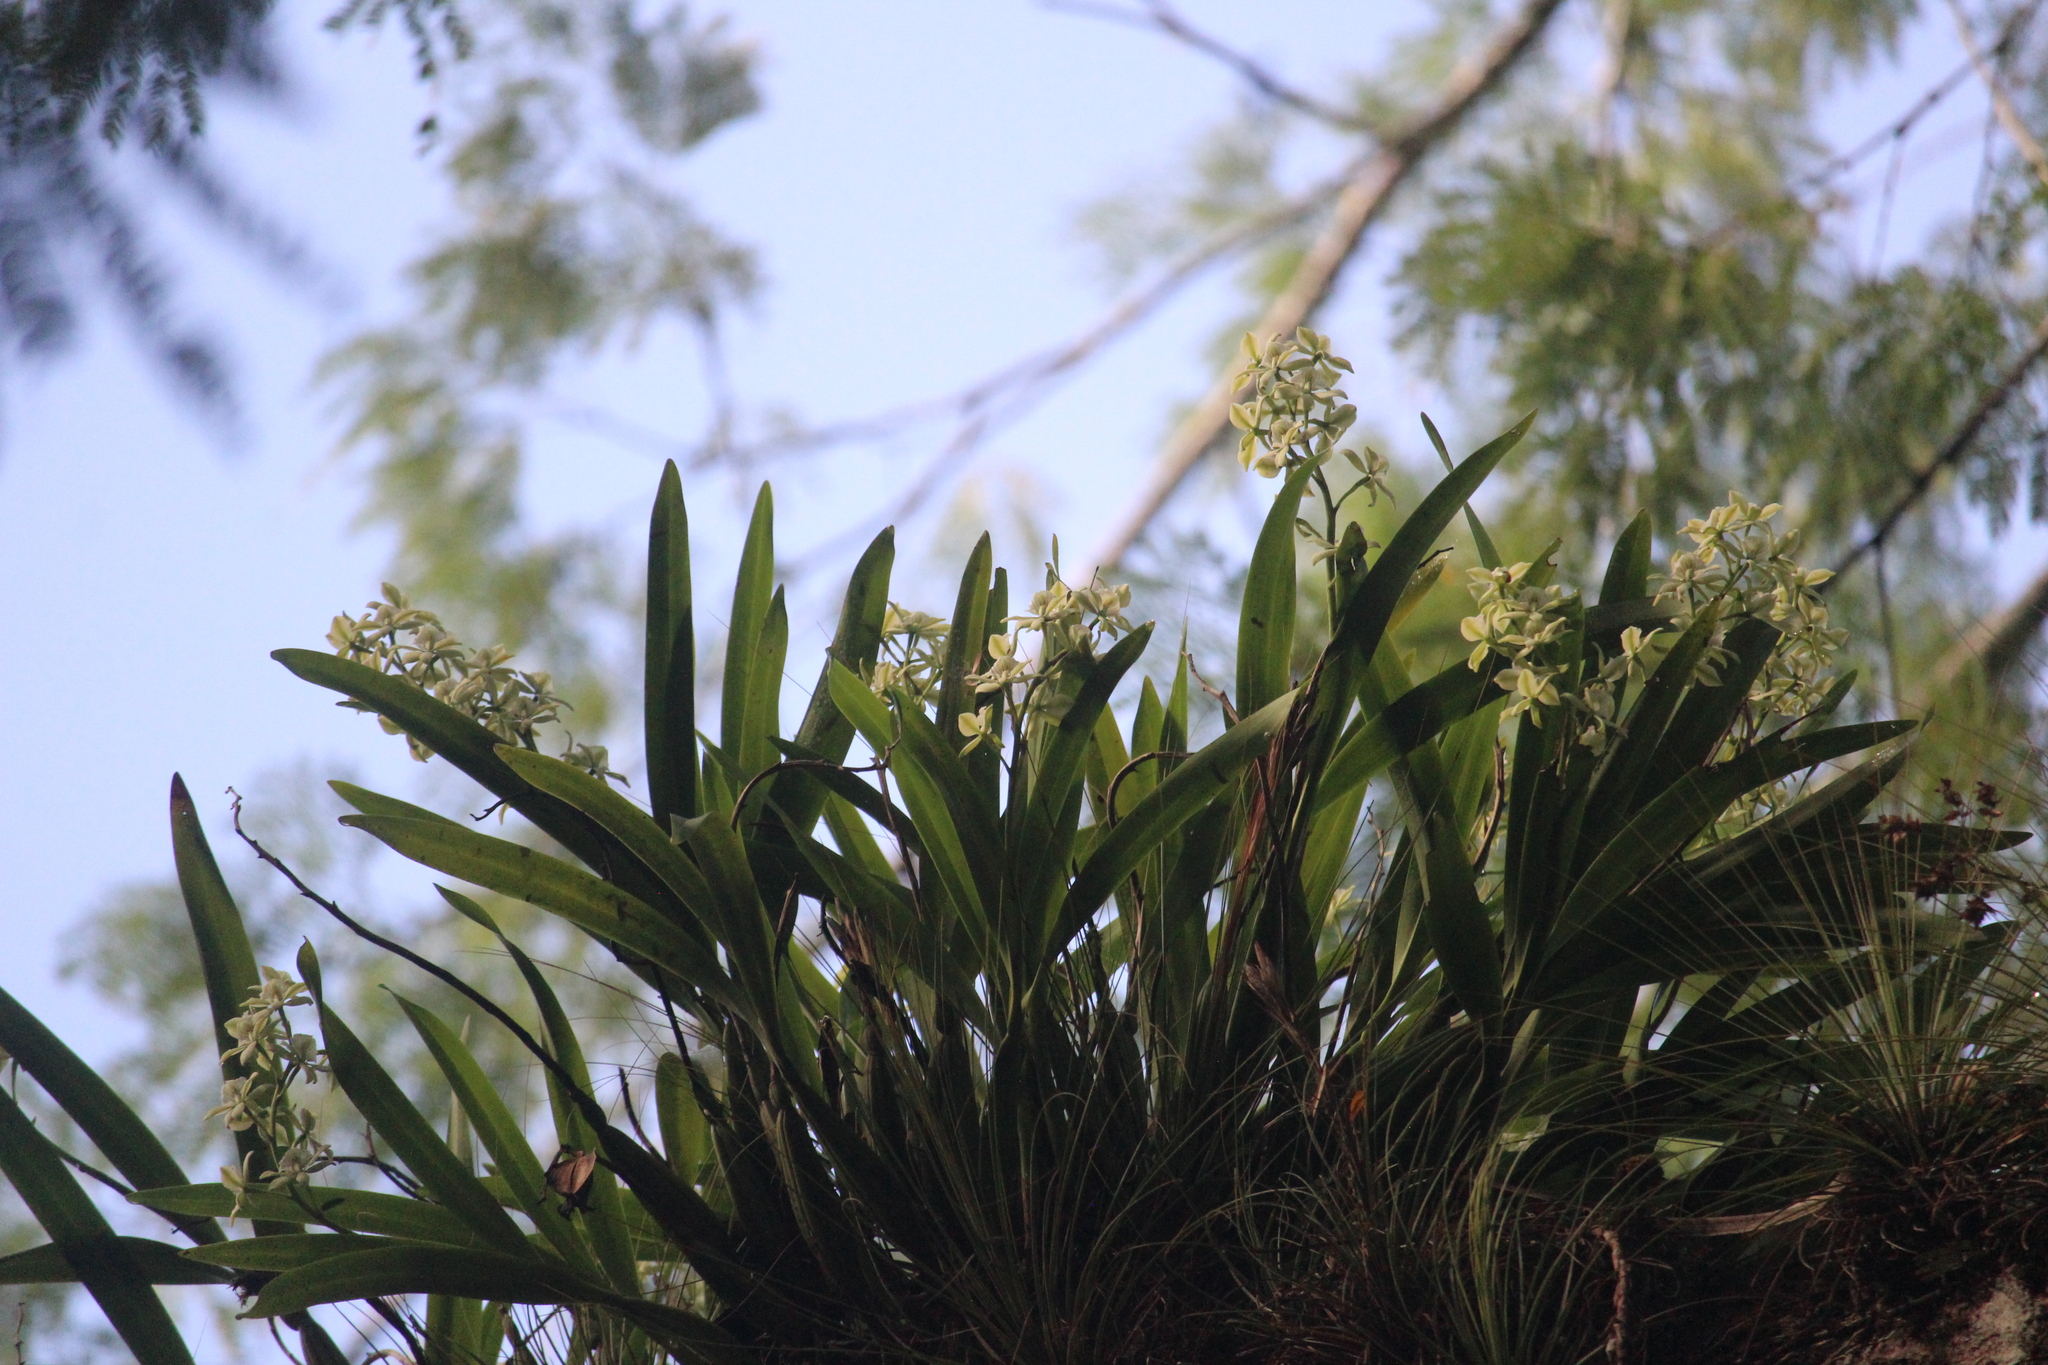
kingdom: Plantae
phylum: Tracheophyta
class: Liliopsida
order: Asparagales
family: Orchidaceae
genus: Prosthechea
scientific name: Prosthechea radiata
